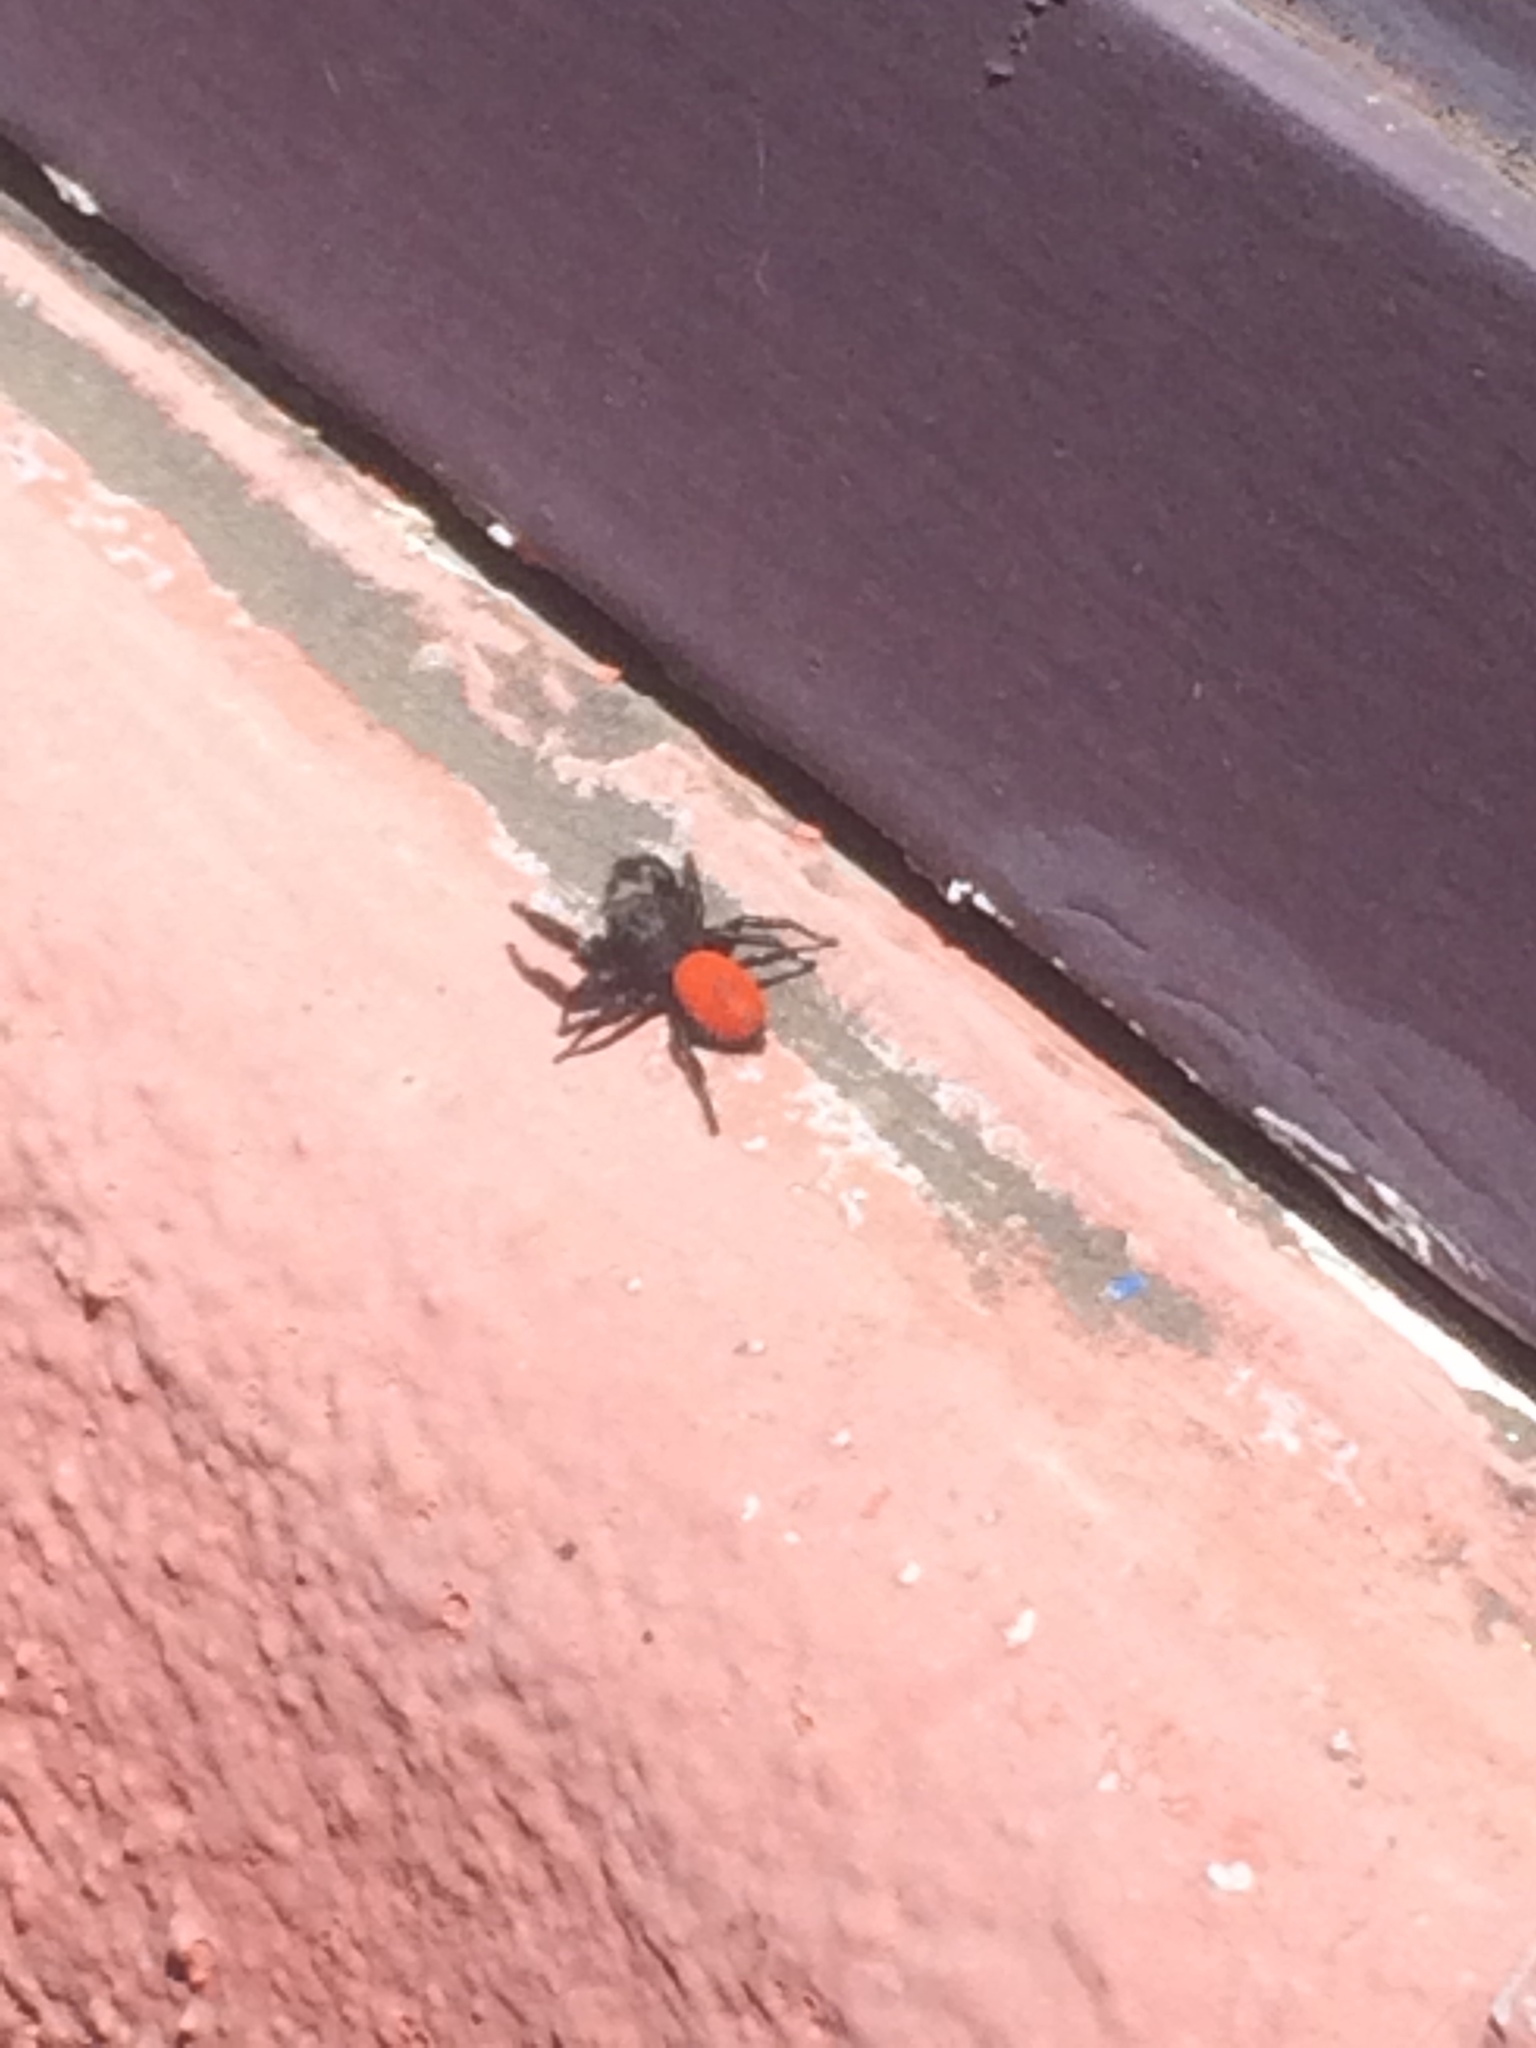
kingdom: Animalia
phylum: Arthropoda
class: Arachnida
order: Araneae
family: Salticidae
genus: Phidippus
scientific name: Phidippus johnsoni
